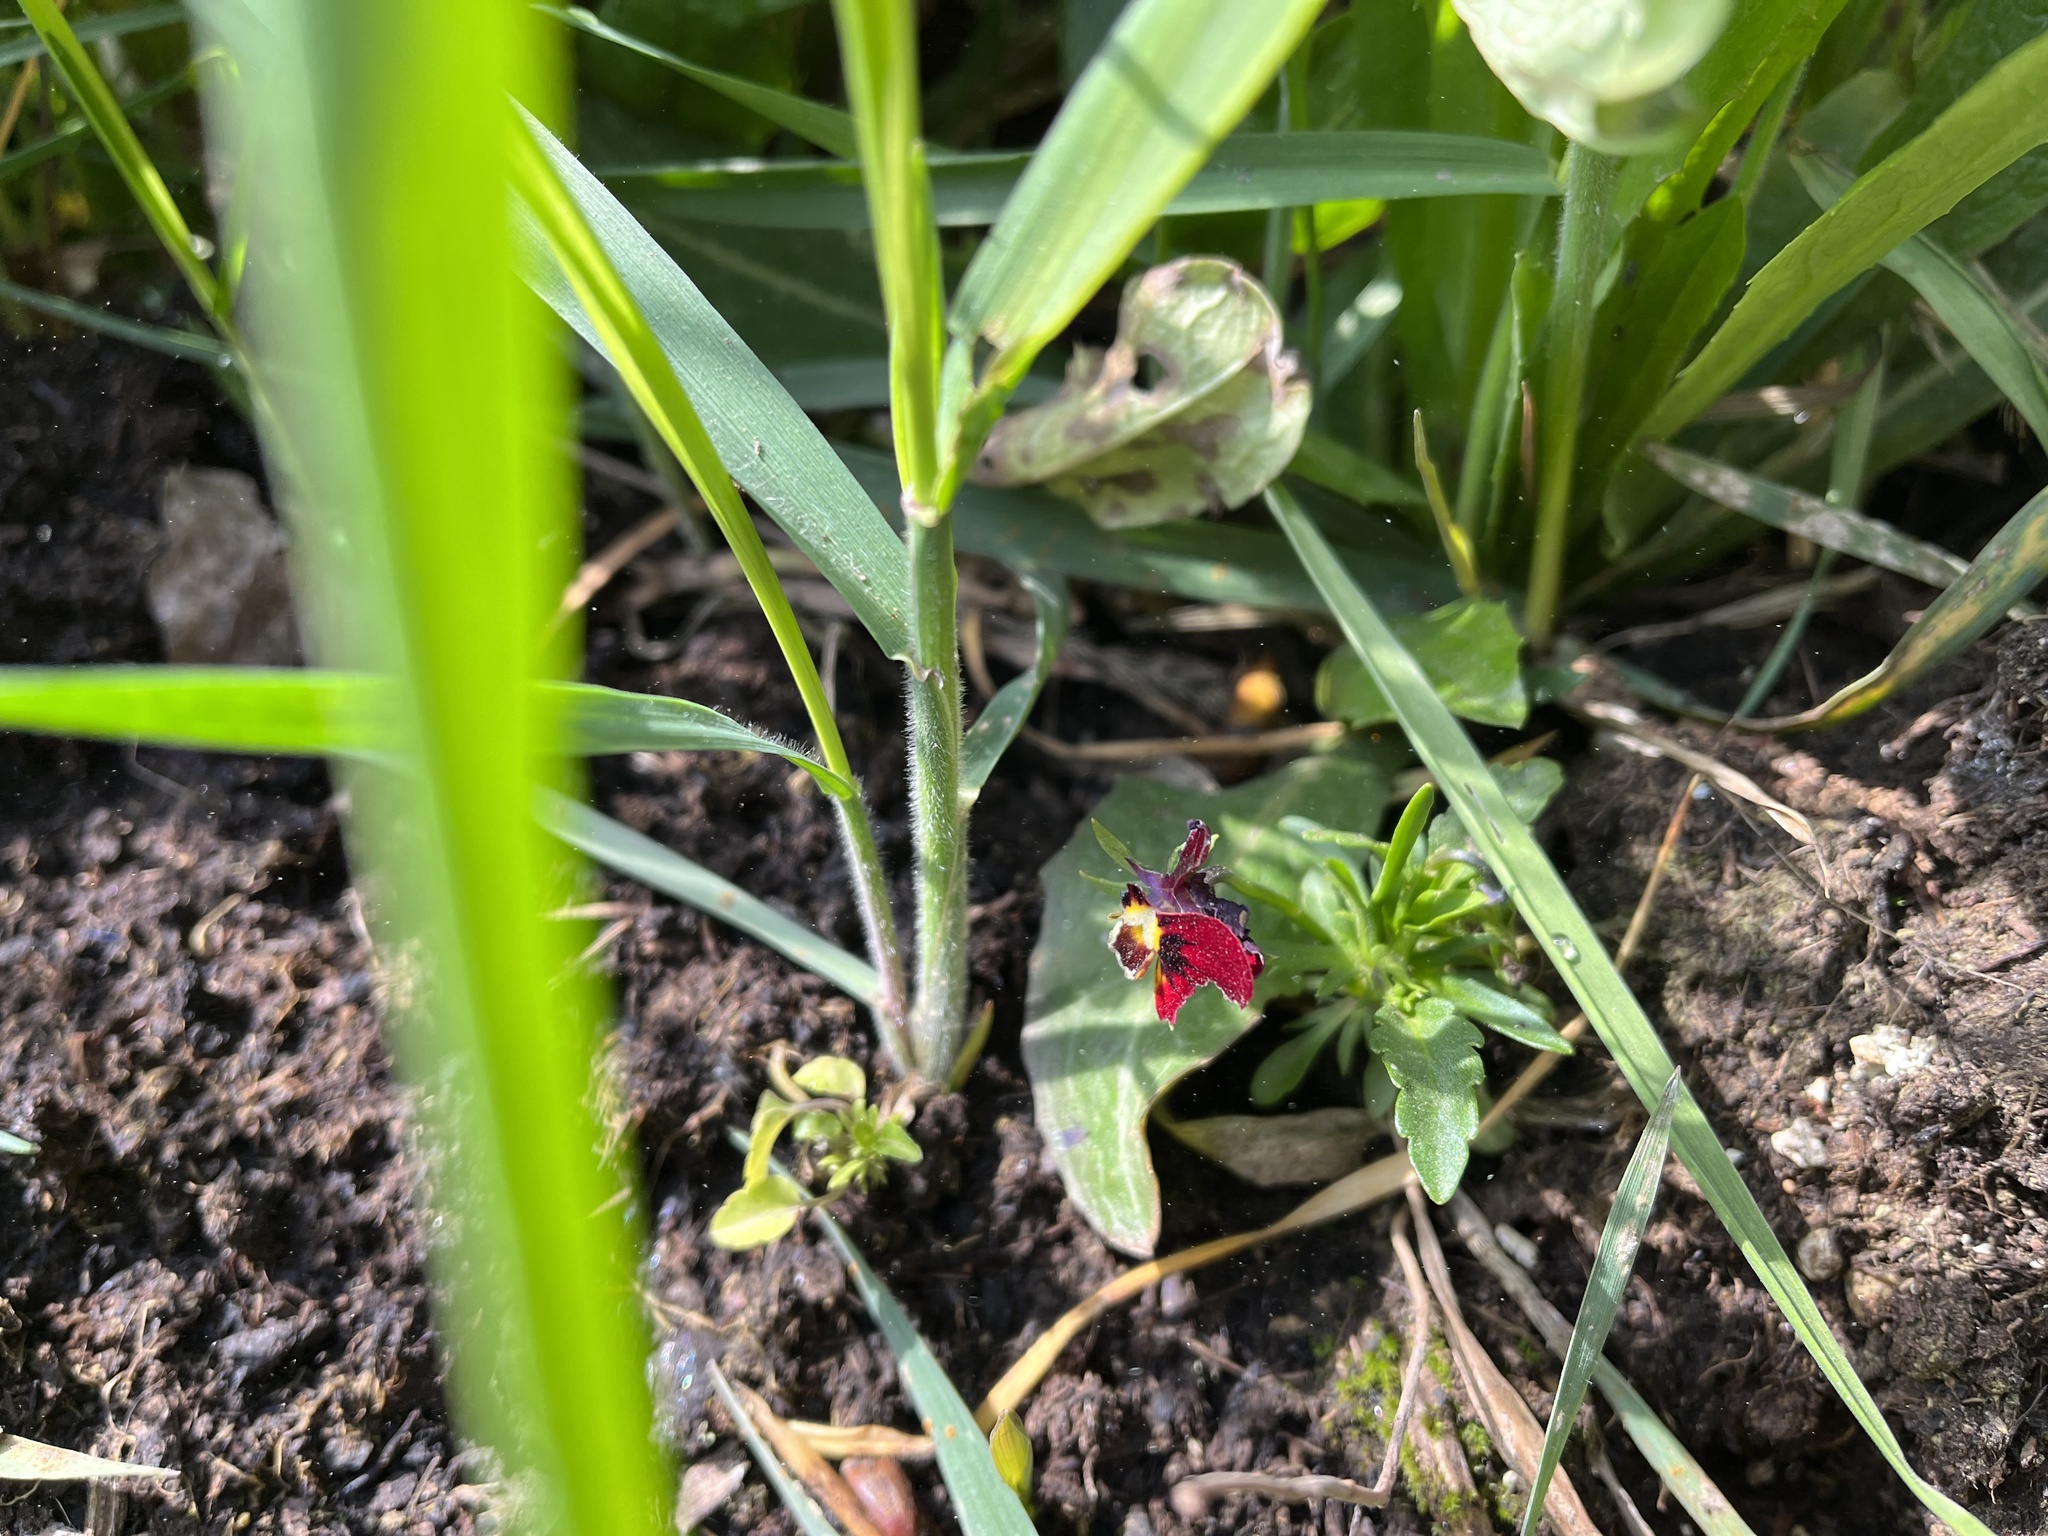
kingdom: Plantae
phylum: Tracheophyta
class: Magnoliopsida
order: Malpighiales
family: Violaceae
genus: Viola
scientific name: Viola wittrockiana
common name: Garden pansy
